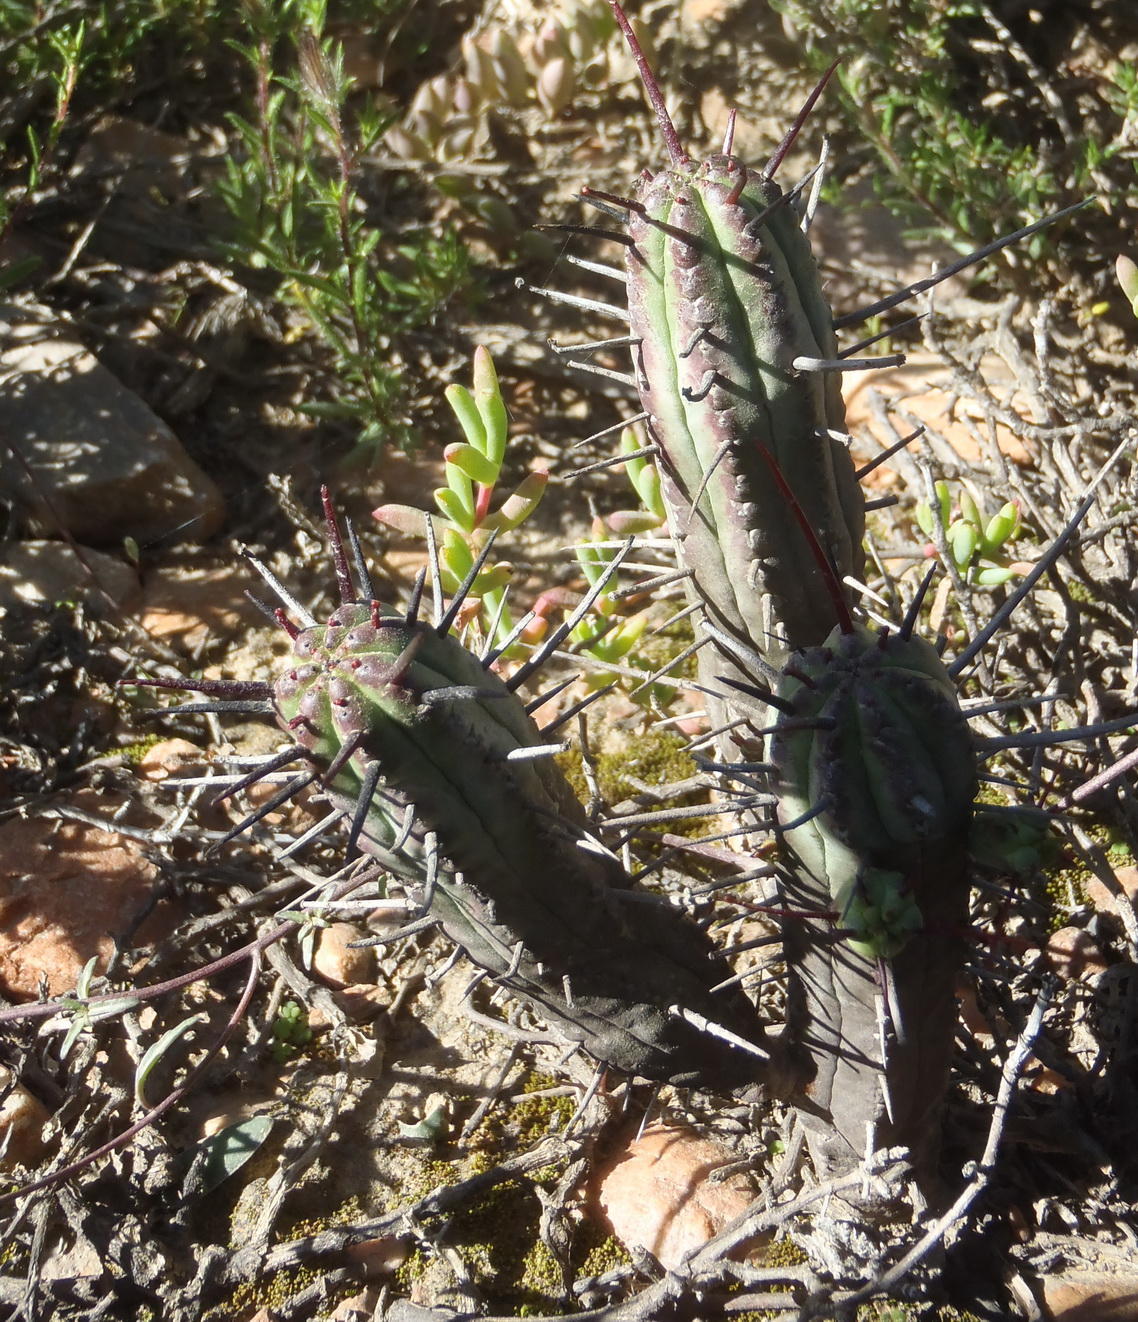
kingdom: Plantae
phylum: Tracheophyta
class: Magnoliopsida
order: Malpighiales
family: Euphorbiaceae
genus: Euphorbia
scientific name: Euphorbia heptagona
